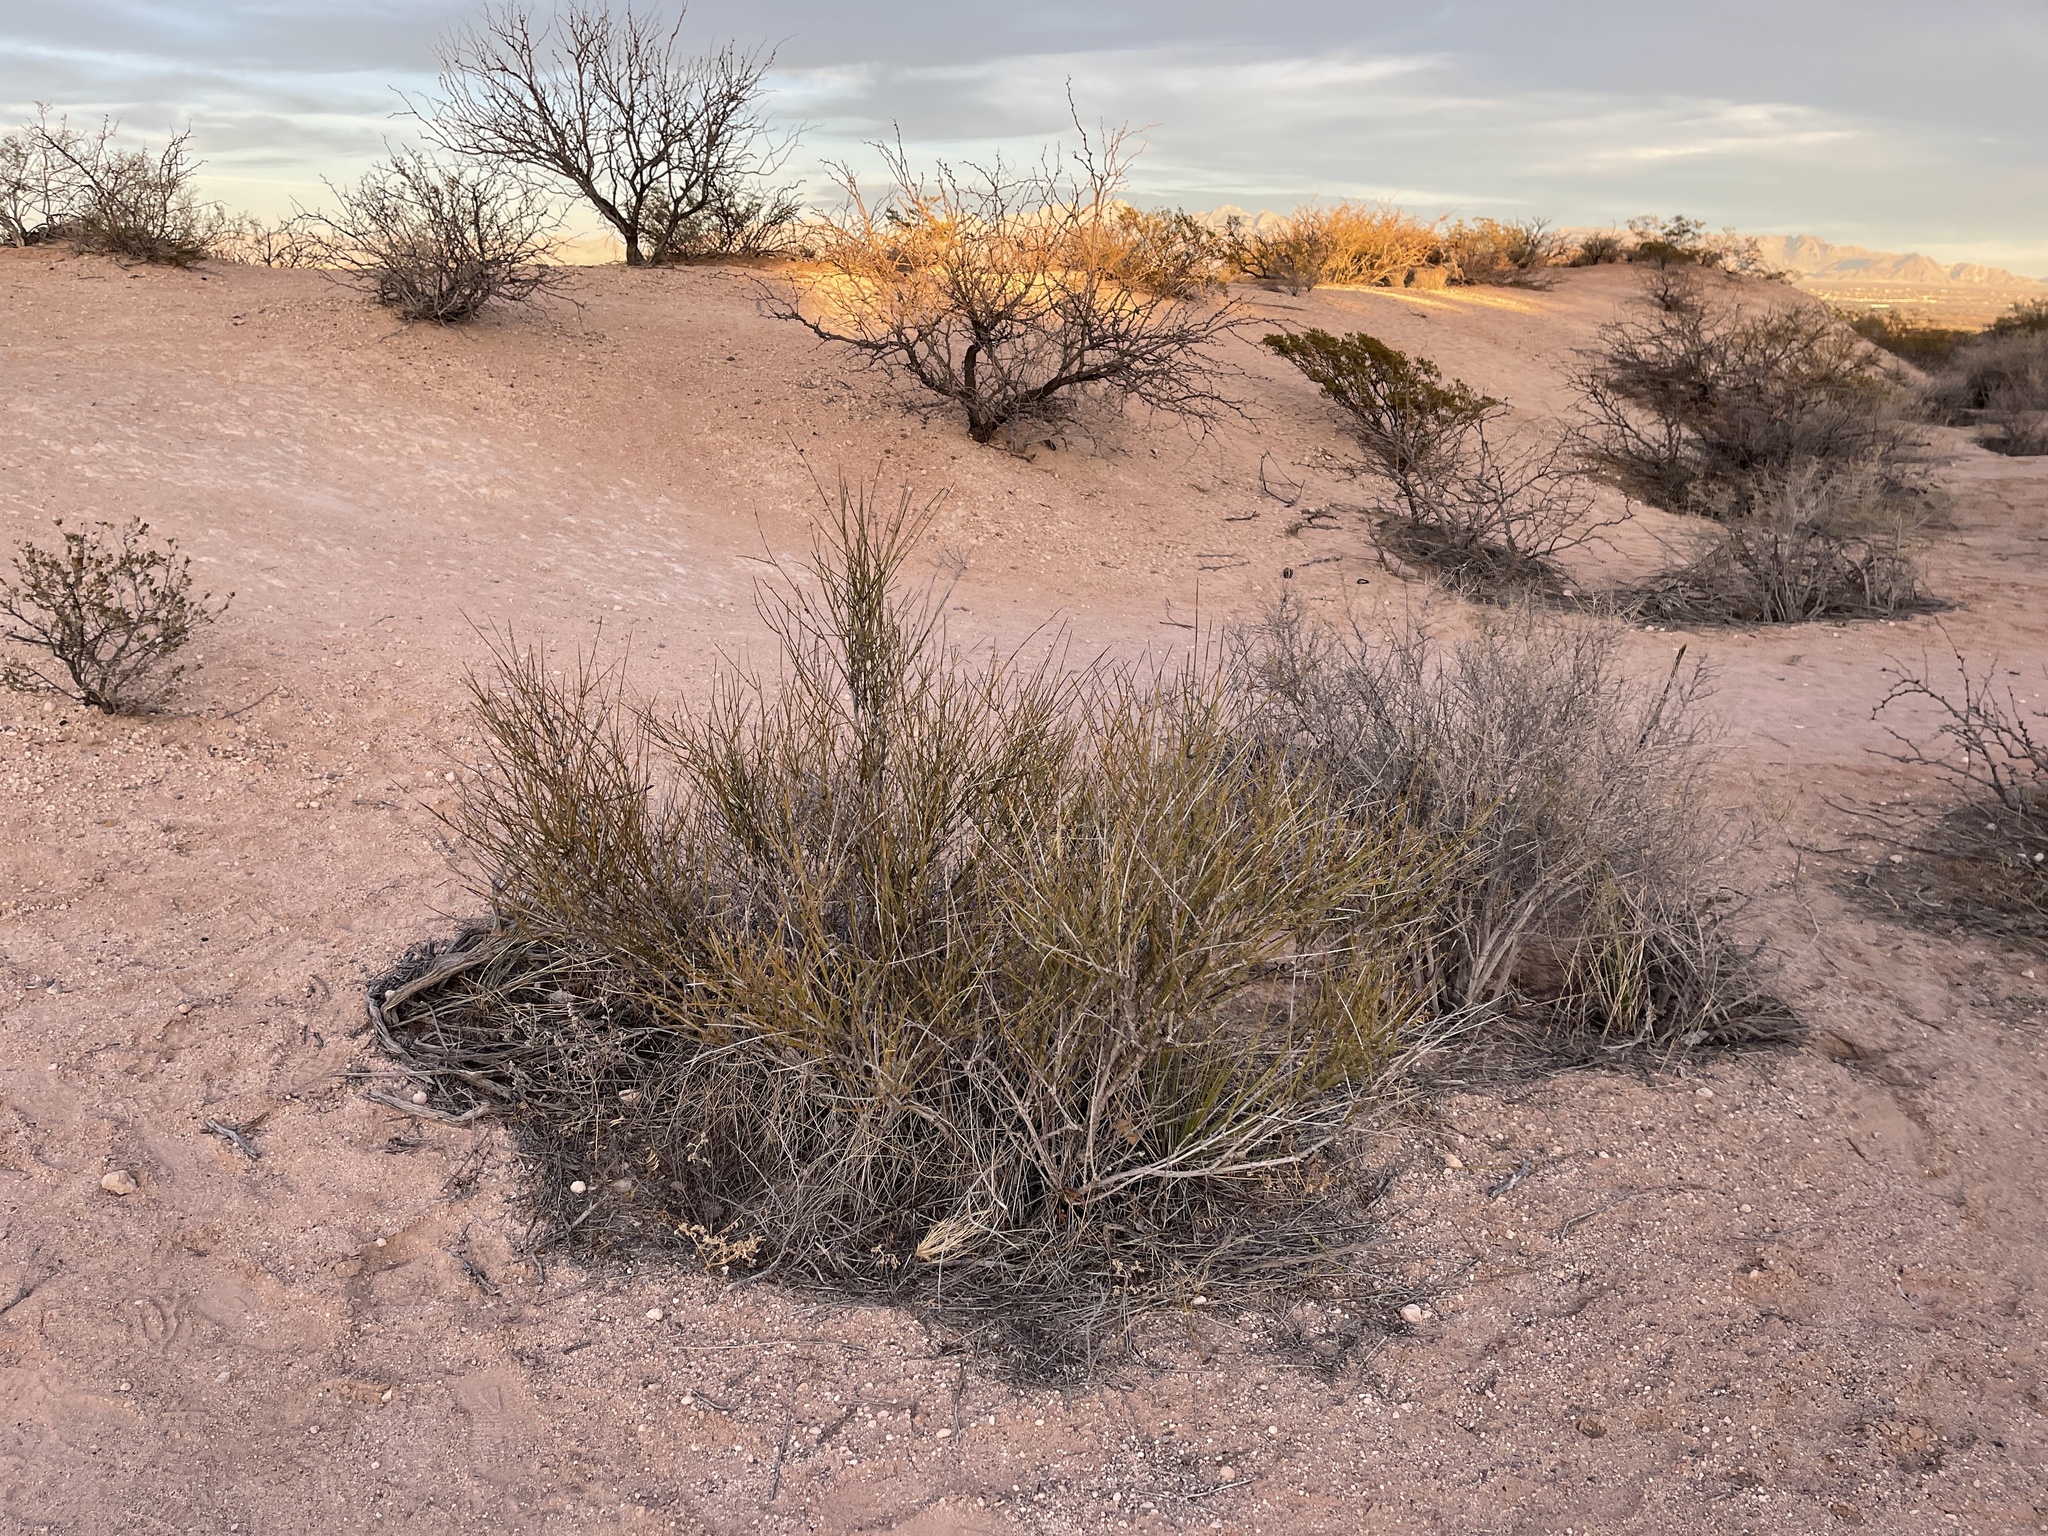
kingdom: Plantae
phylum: Tracheophyta
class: Gnetopsida
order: Ephedrales
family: Ephedraceae
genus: Ephedra
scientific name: Ephedra trifurca
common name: Mexican-tea
